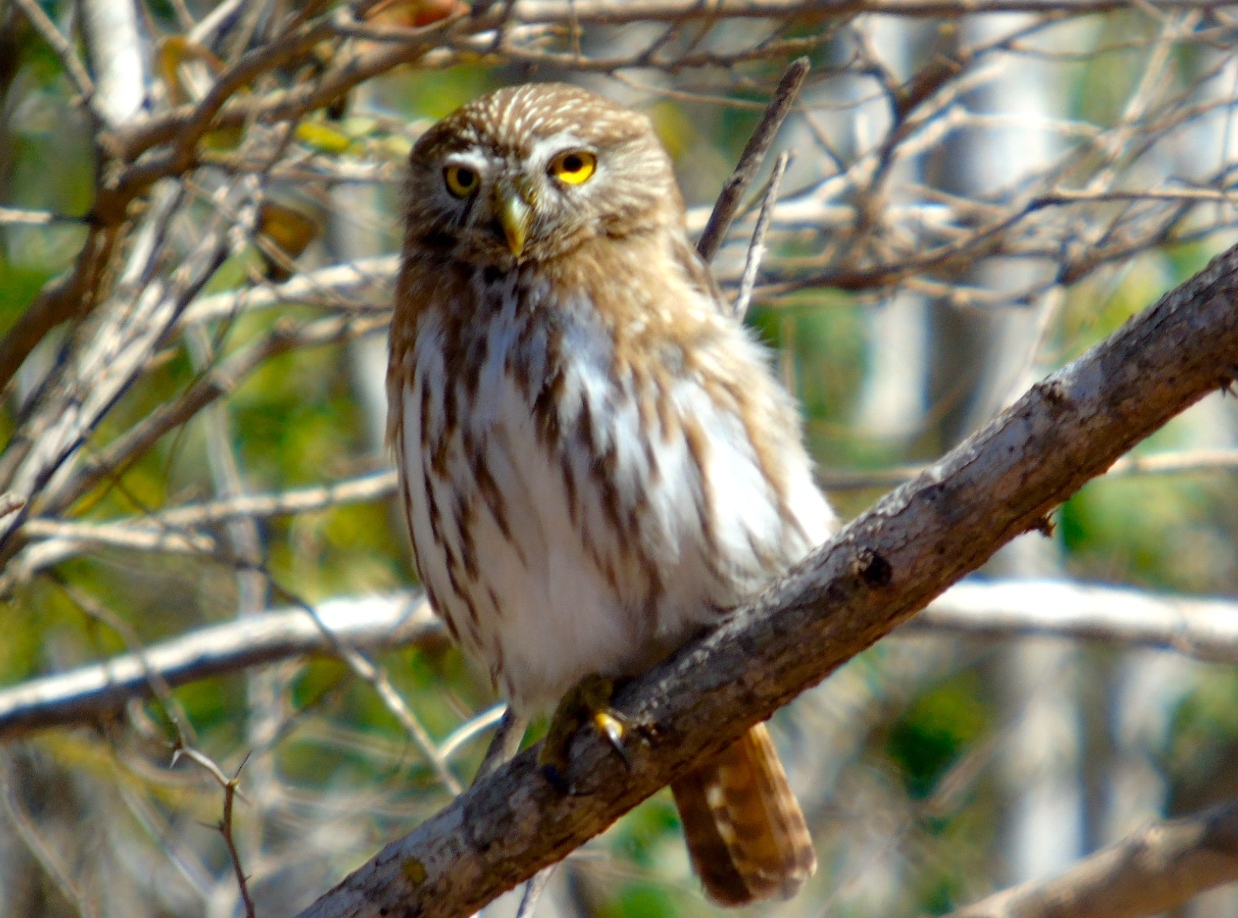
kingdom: Animalia
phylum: Chordata
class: Aves
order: Strigiformes
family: Strigidae
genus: Glaucidium
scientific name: Glaucidium brasilianum
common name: Ferruginous pygmy-owl
